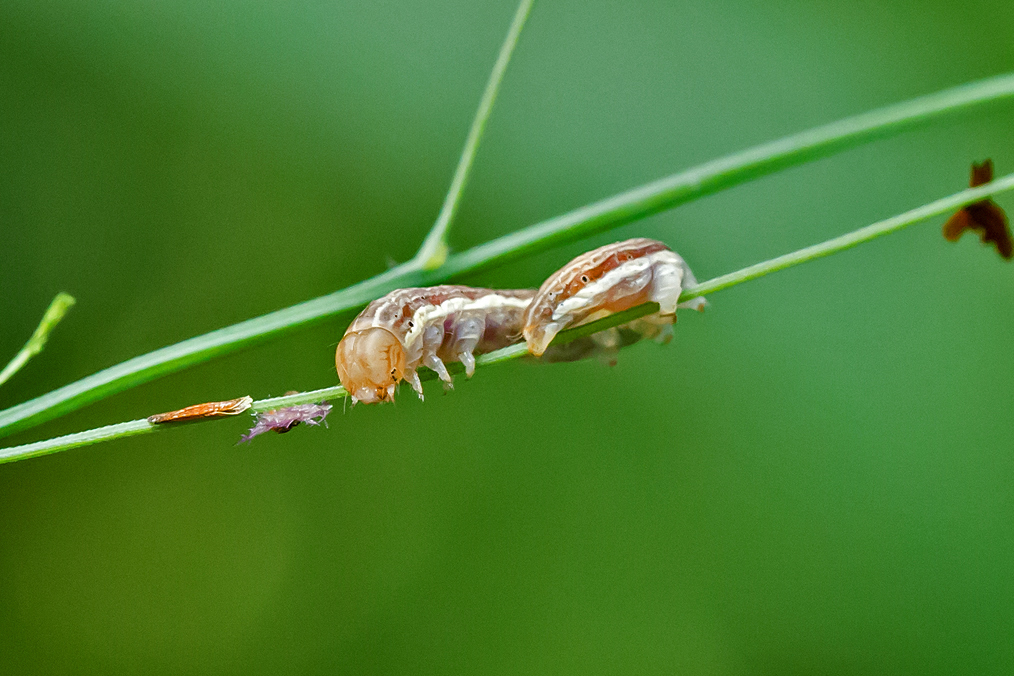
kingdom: Animalia
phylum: Arthropoda
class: Insecta
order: Lepidoptera
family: Noctuidae
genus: Dargida
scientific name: Dargida diffusa
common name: Wheat head armyworm
